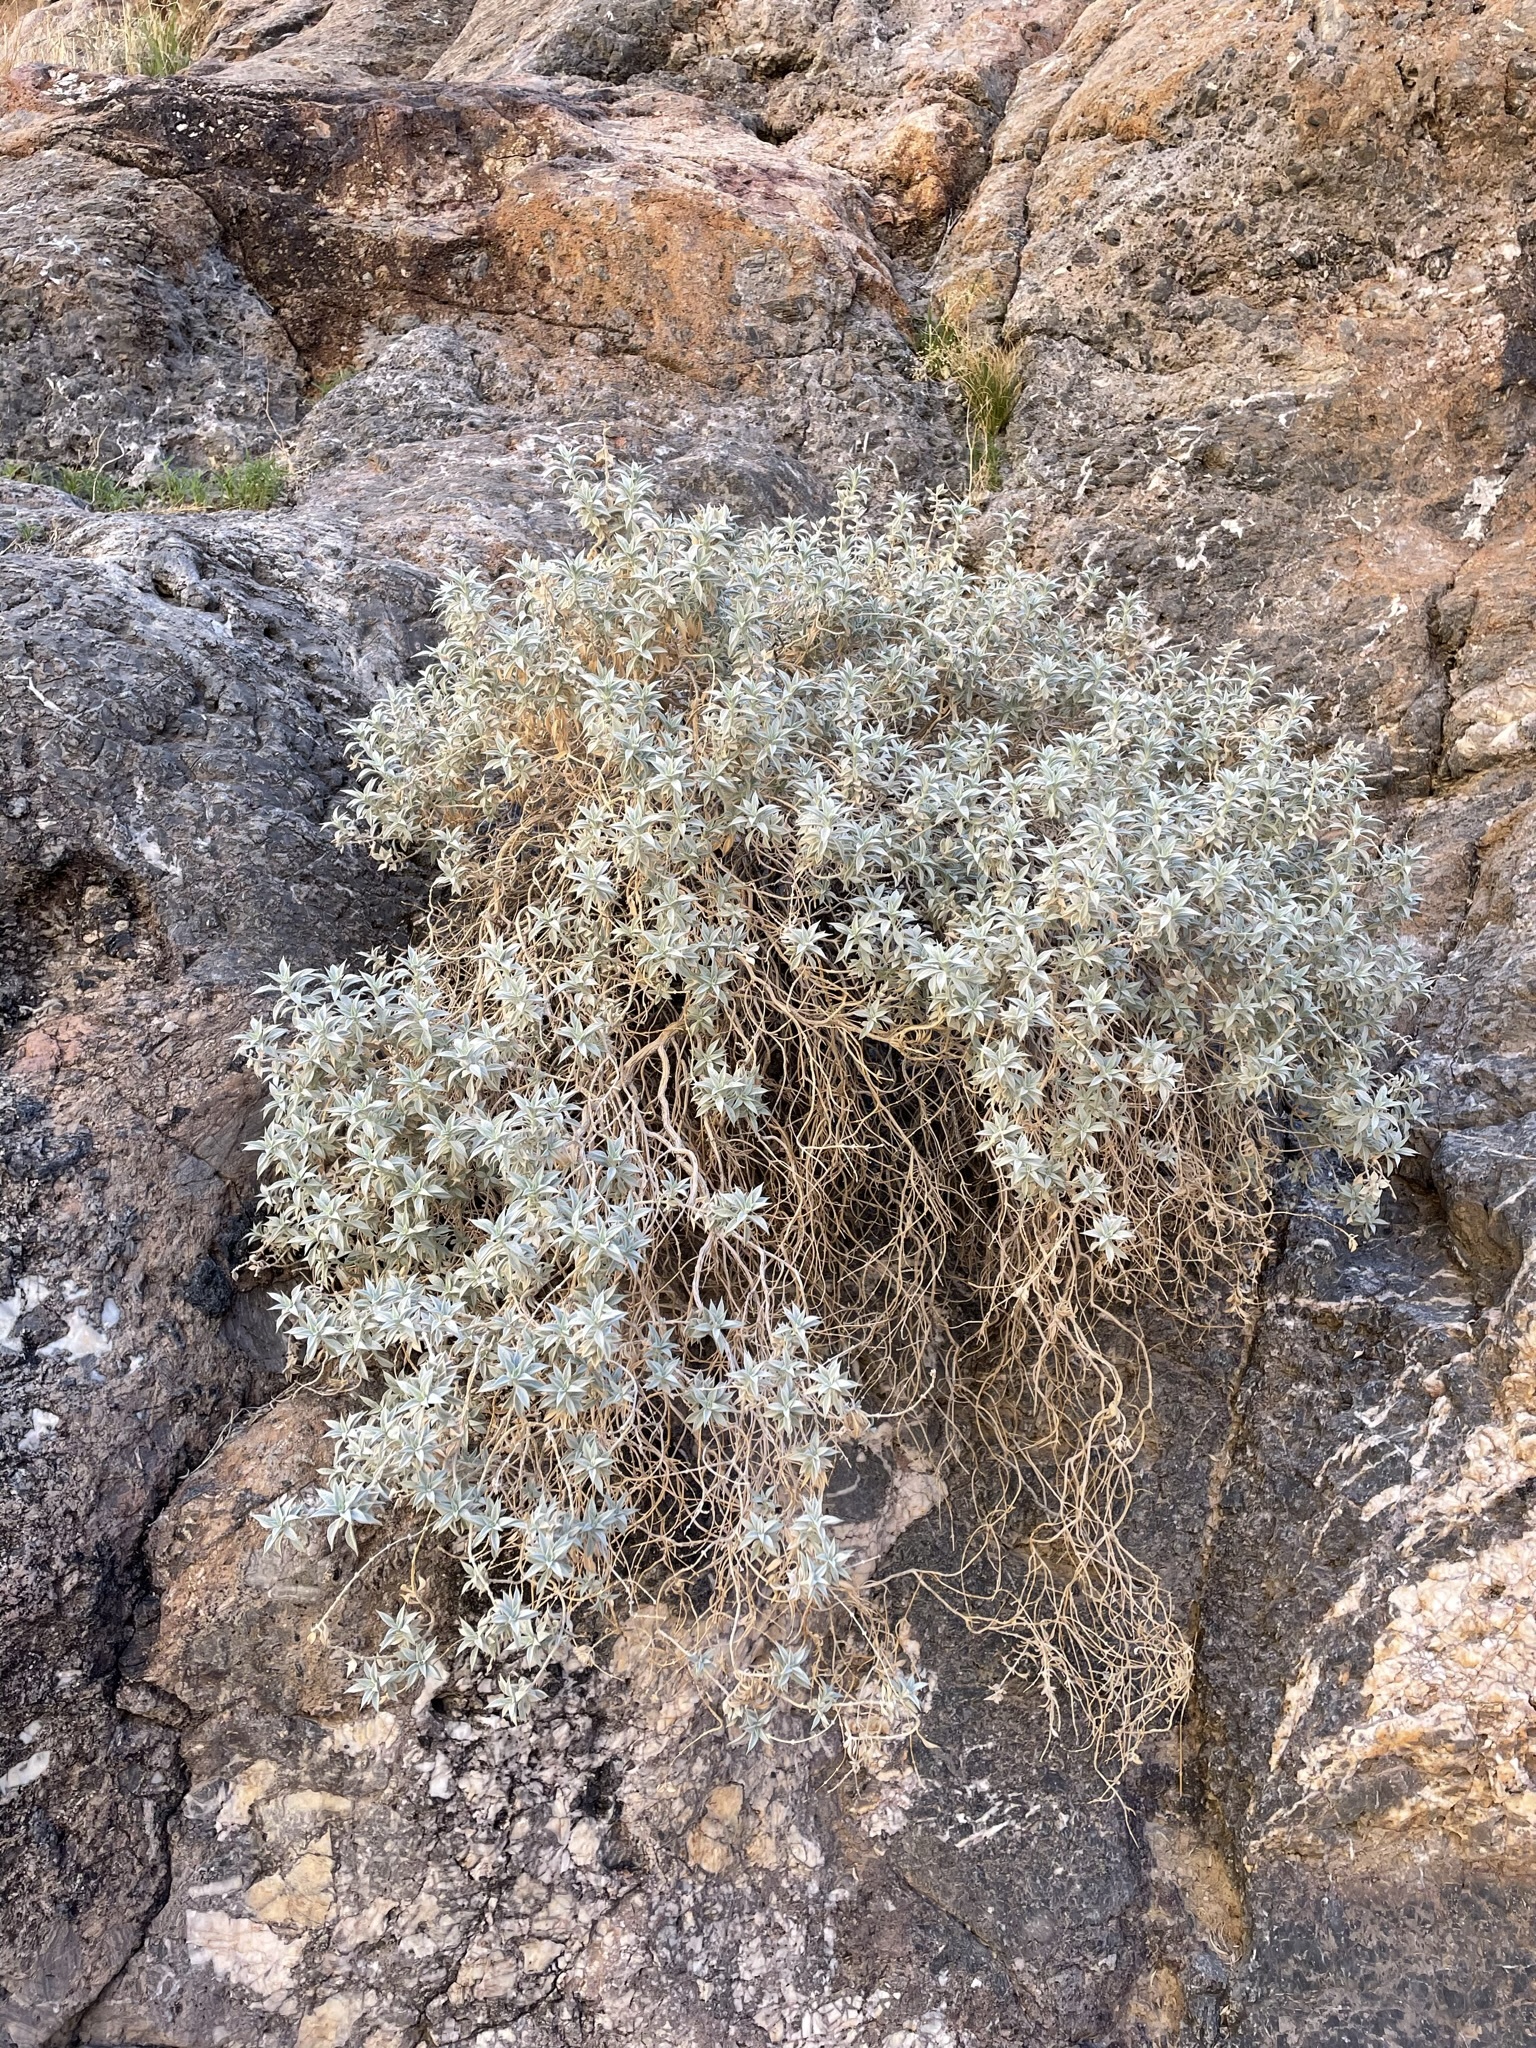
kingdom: Plantae
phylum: Tracheophyta
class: Magnoliopsida
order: Lamiales
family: Lamiaceae
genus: Salvia
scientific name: Salvia funerea
